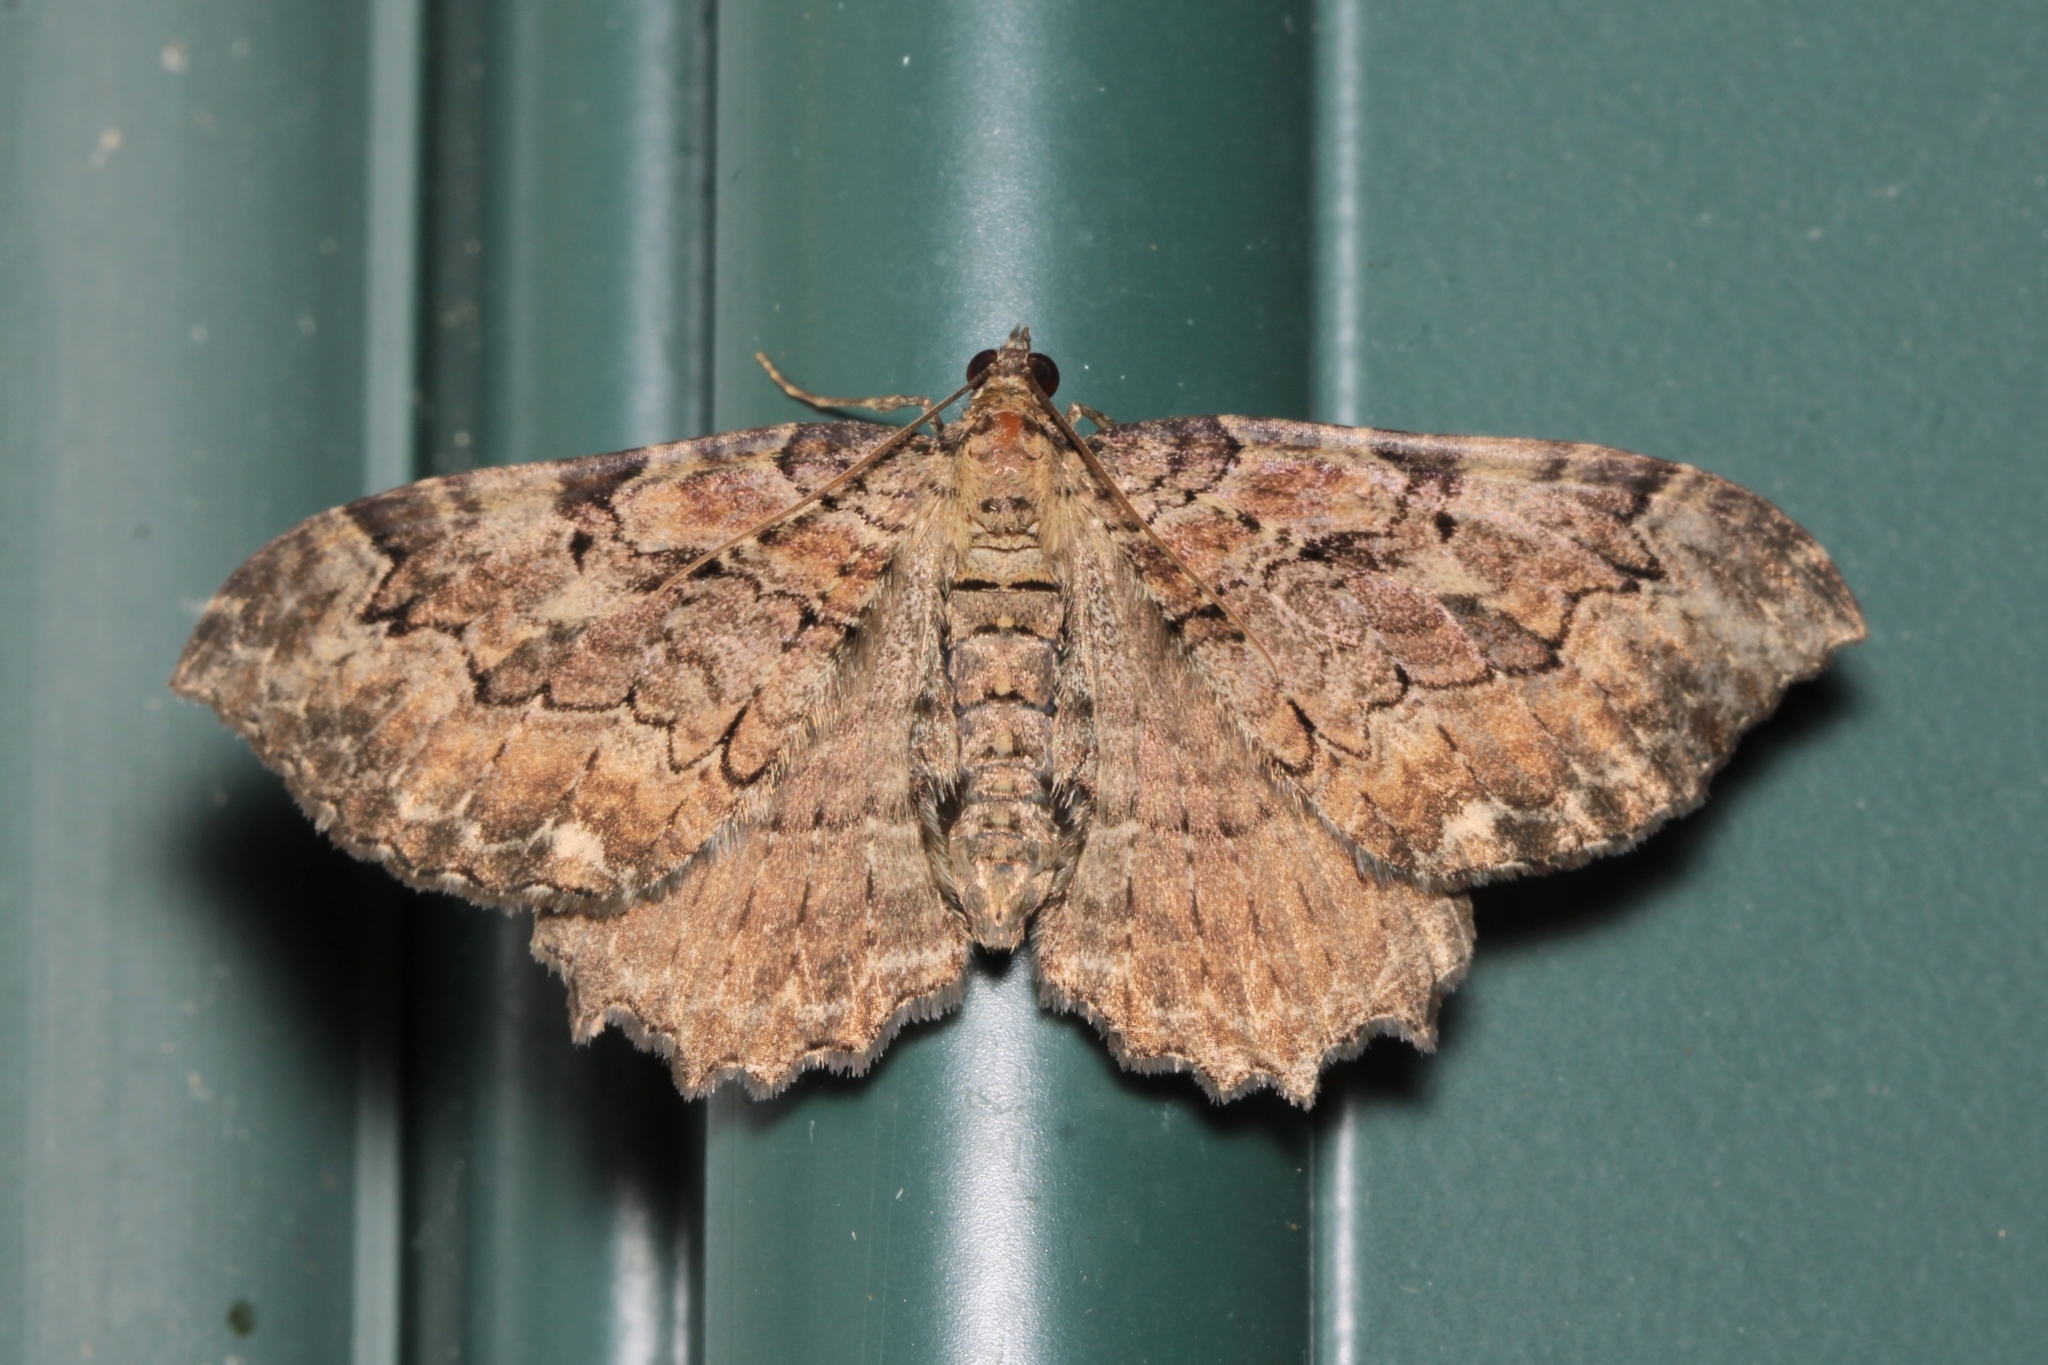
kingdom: Animalia
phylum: Arthropoda
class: Insecta
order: Lepidoptera
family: Geometridae
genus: Rheumaptera
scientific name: Rheumaptera
